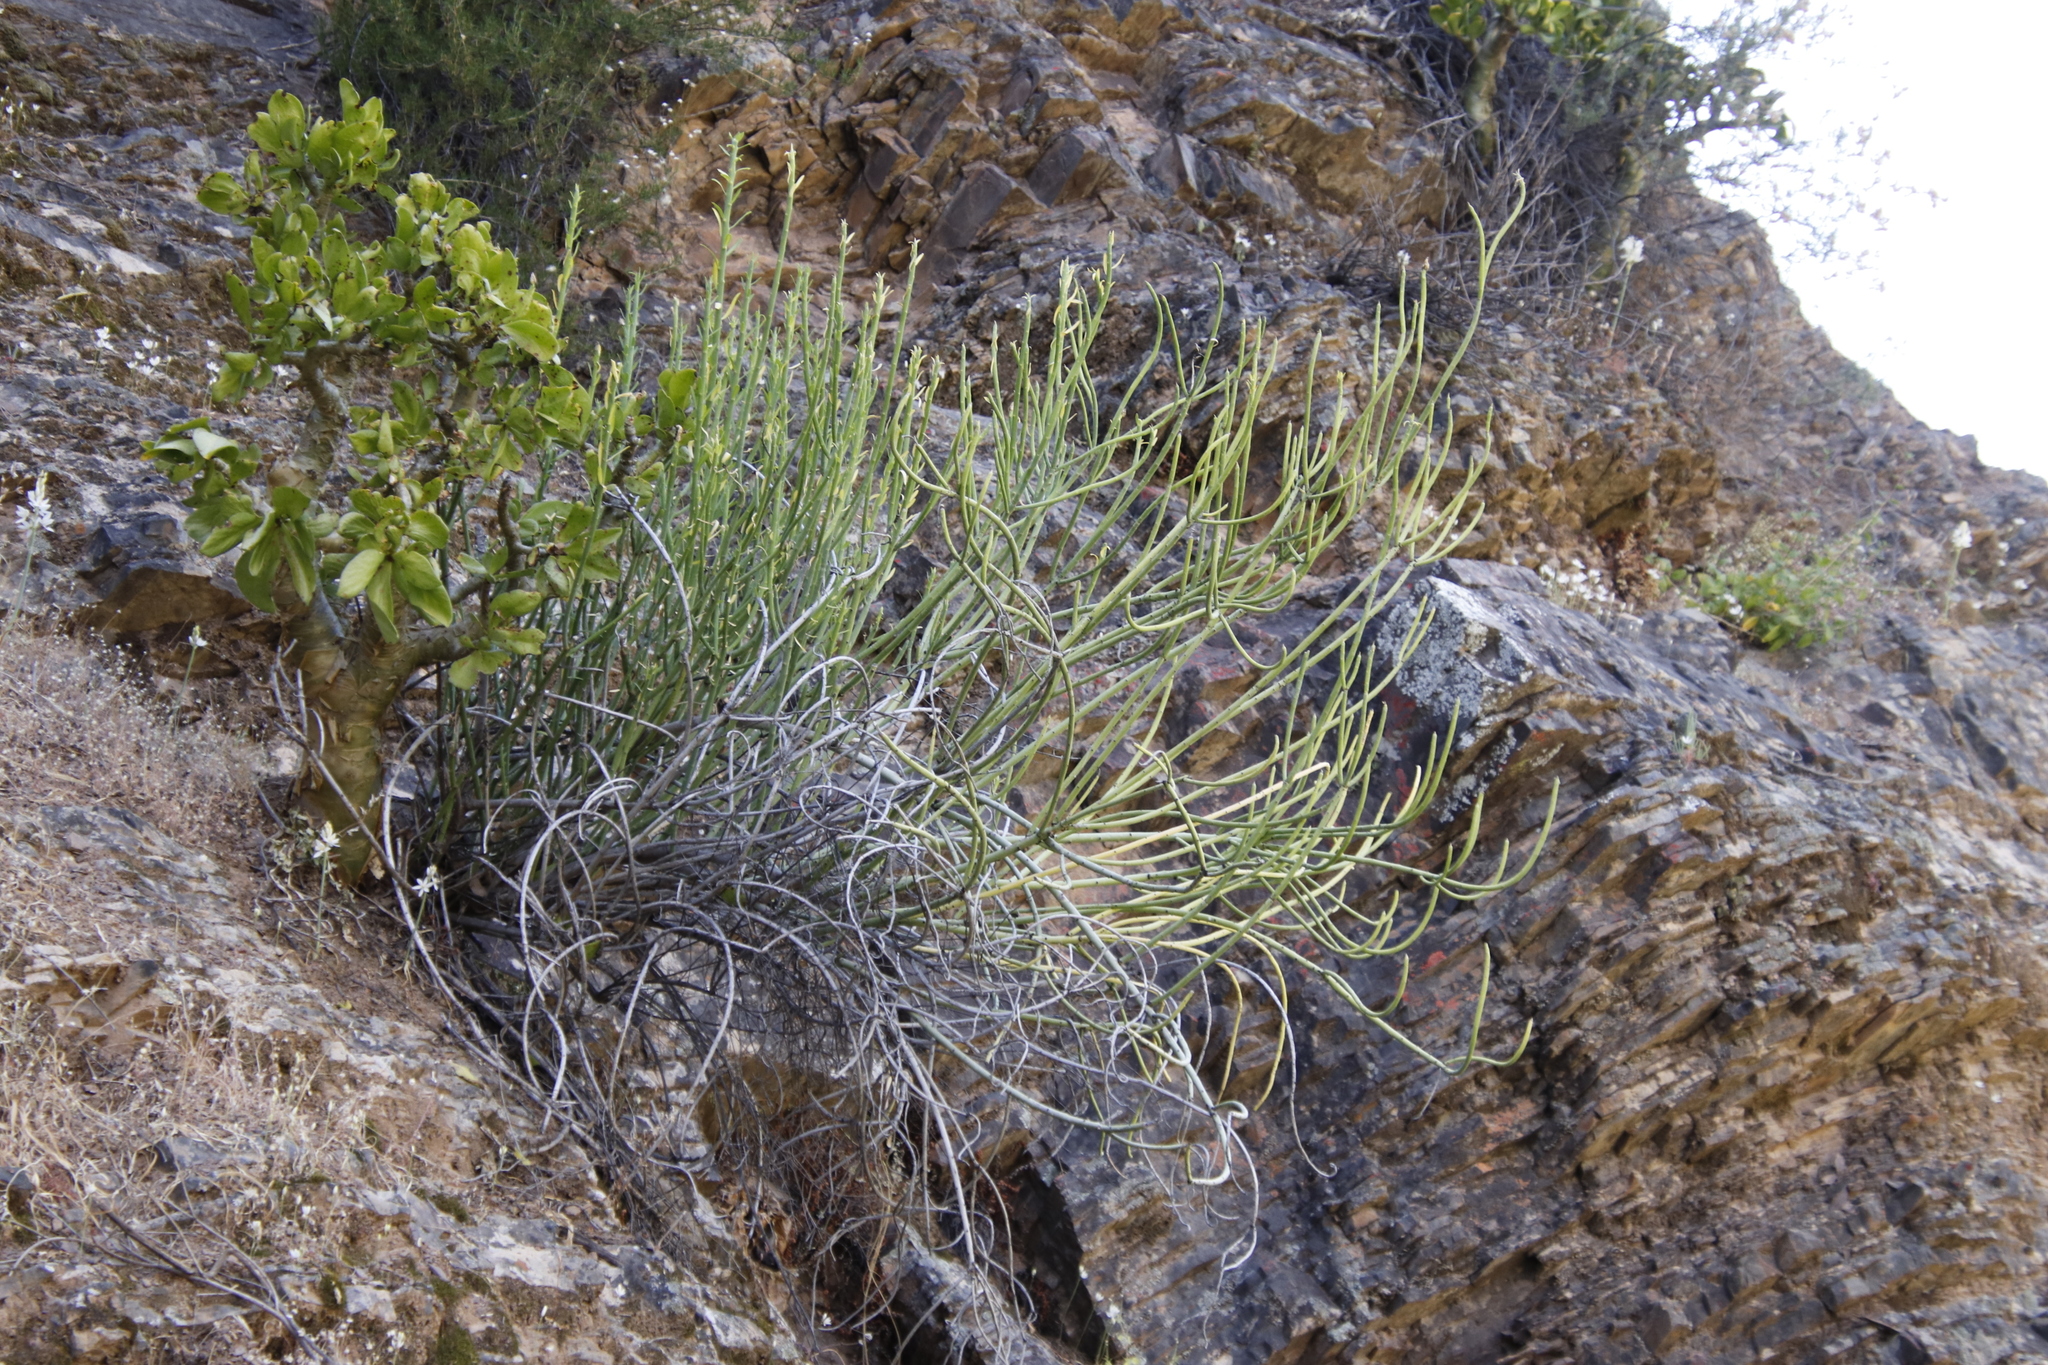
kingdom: Plantae
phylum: Tracheophyta
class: Magnoliopsida
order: Malpighiales
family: Euphorbiaceae
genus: Euphorbia
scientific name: Euphorbia mauritanica
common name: Jackal's-food
